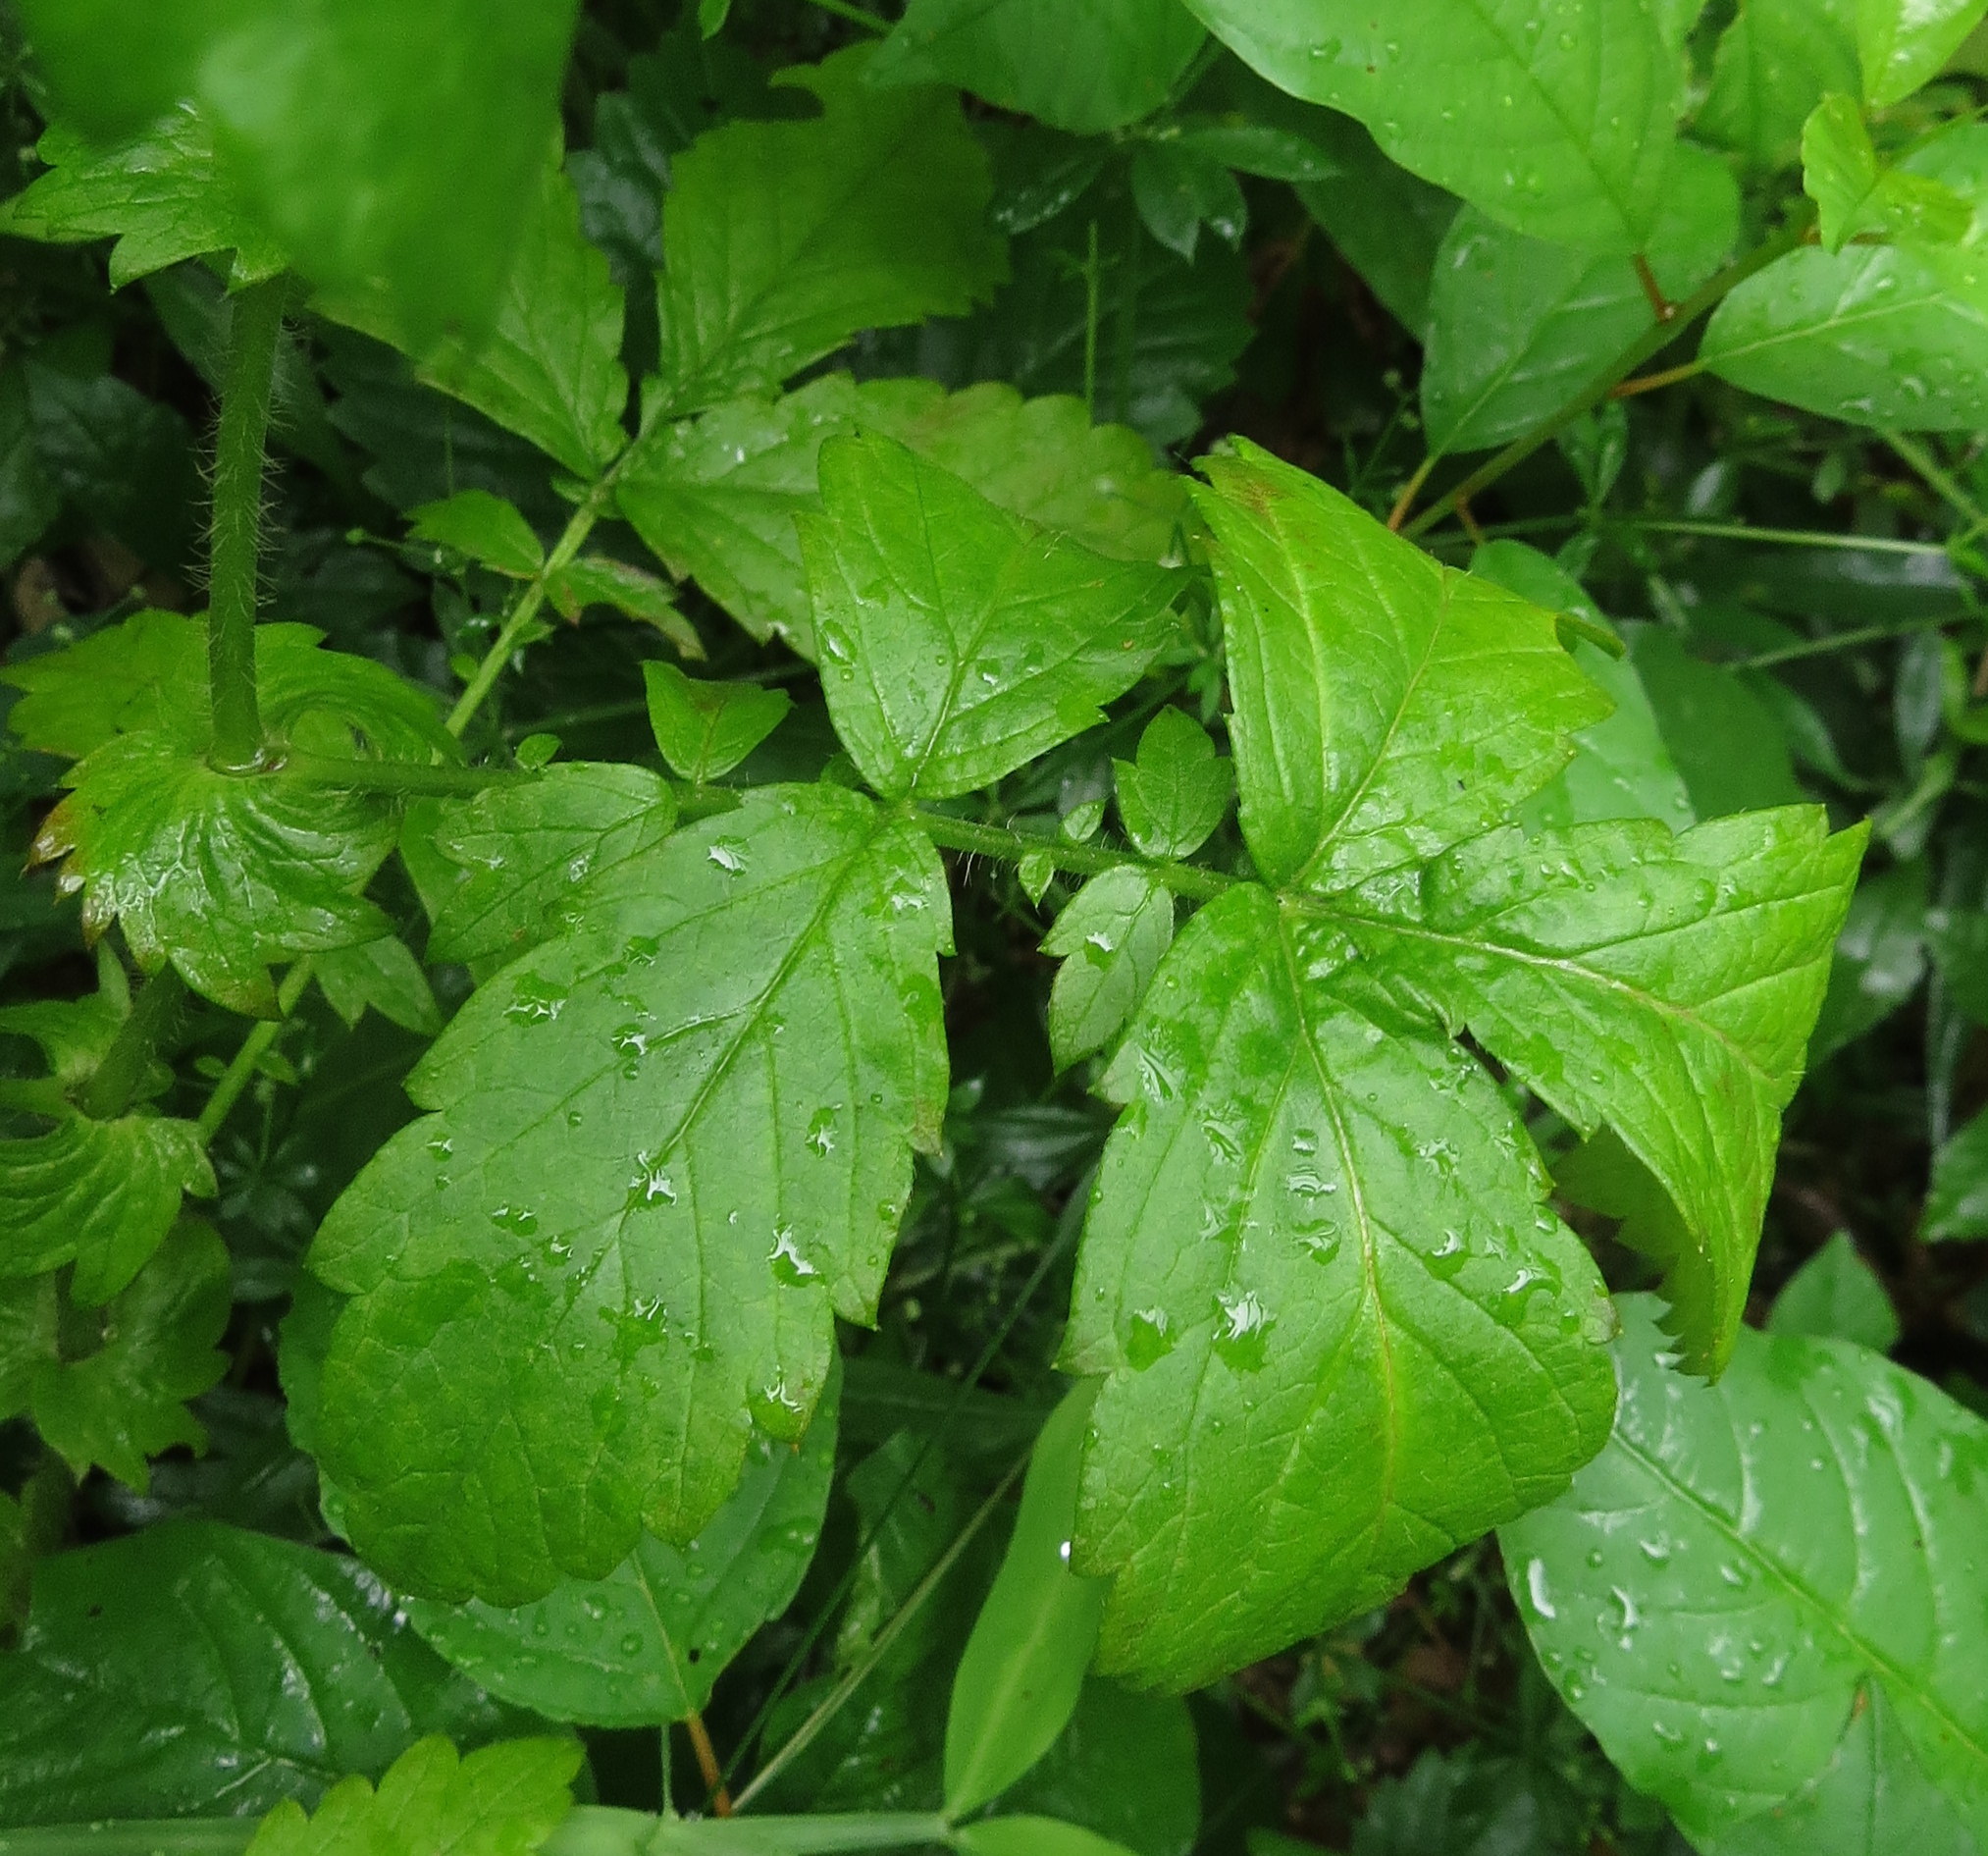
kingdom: Plantae
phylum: Tracheophyta
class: Magnoliopsida
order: Rosales
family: Rosaceae
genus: Agrimonia
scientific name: Agrimonia gryposepala
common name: Common agrimony
